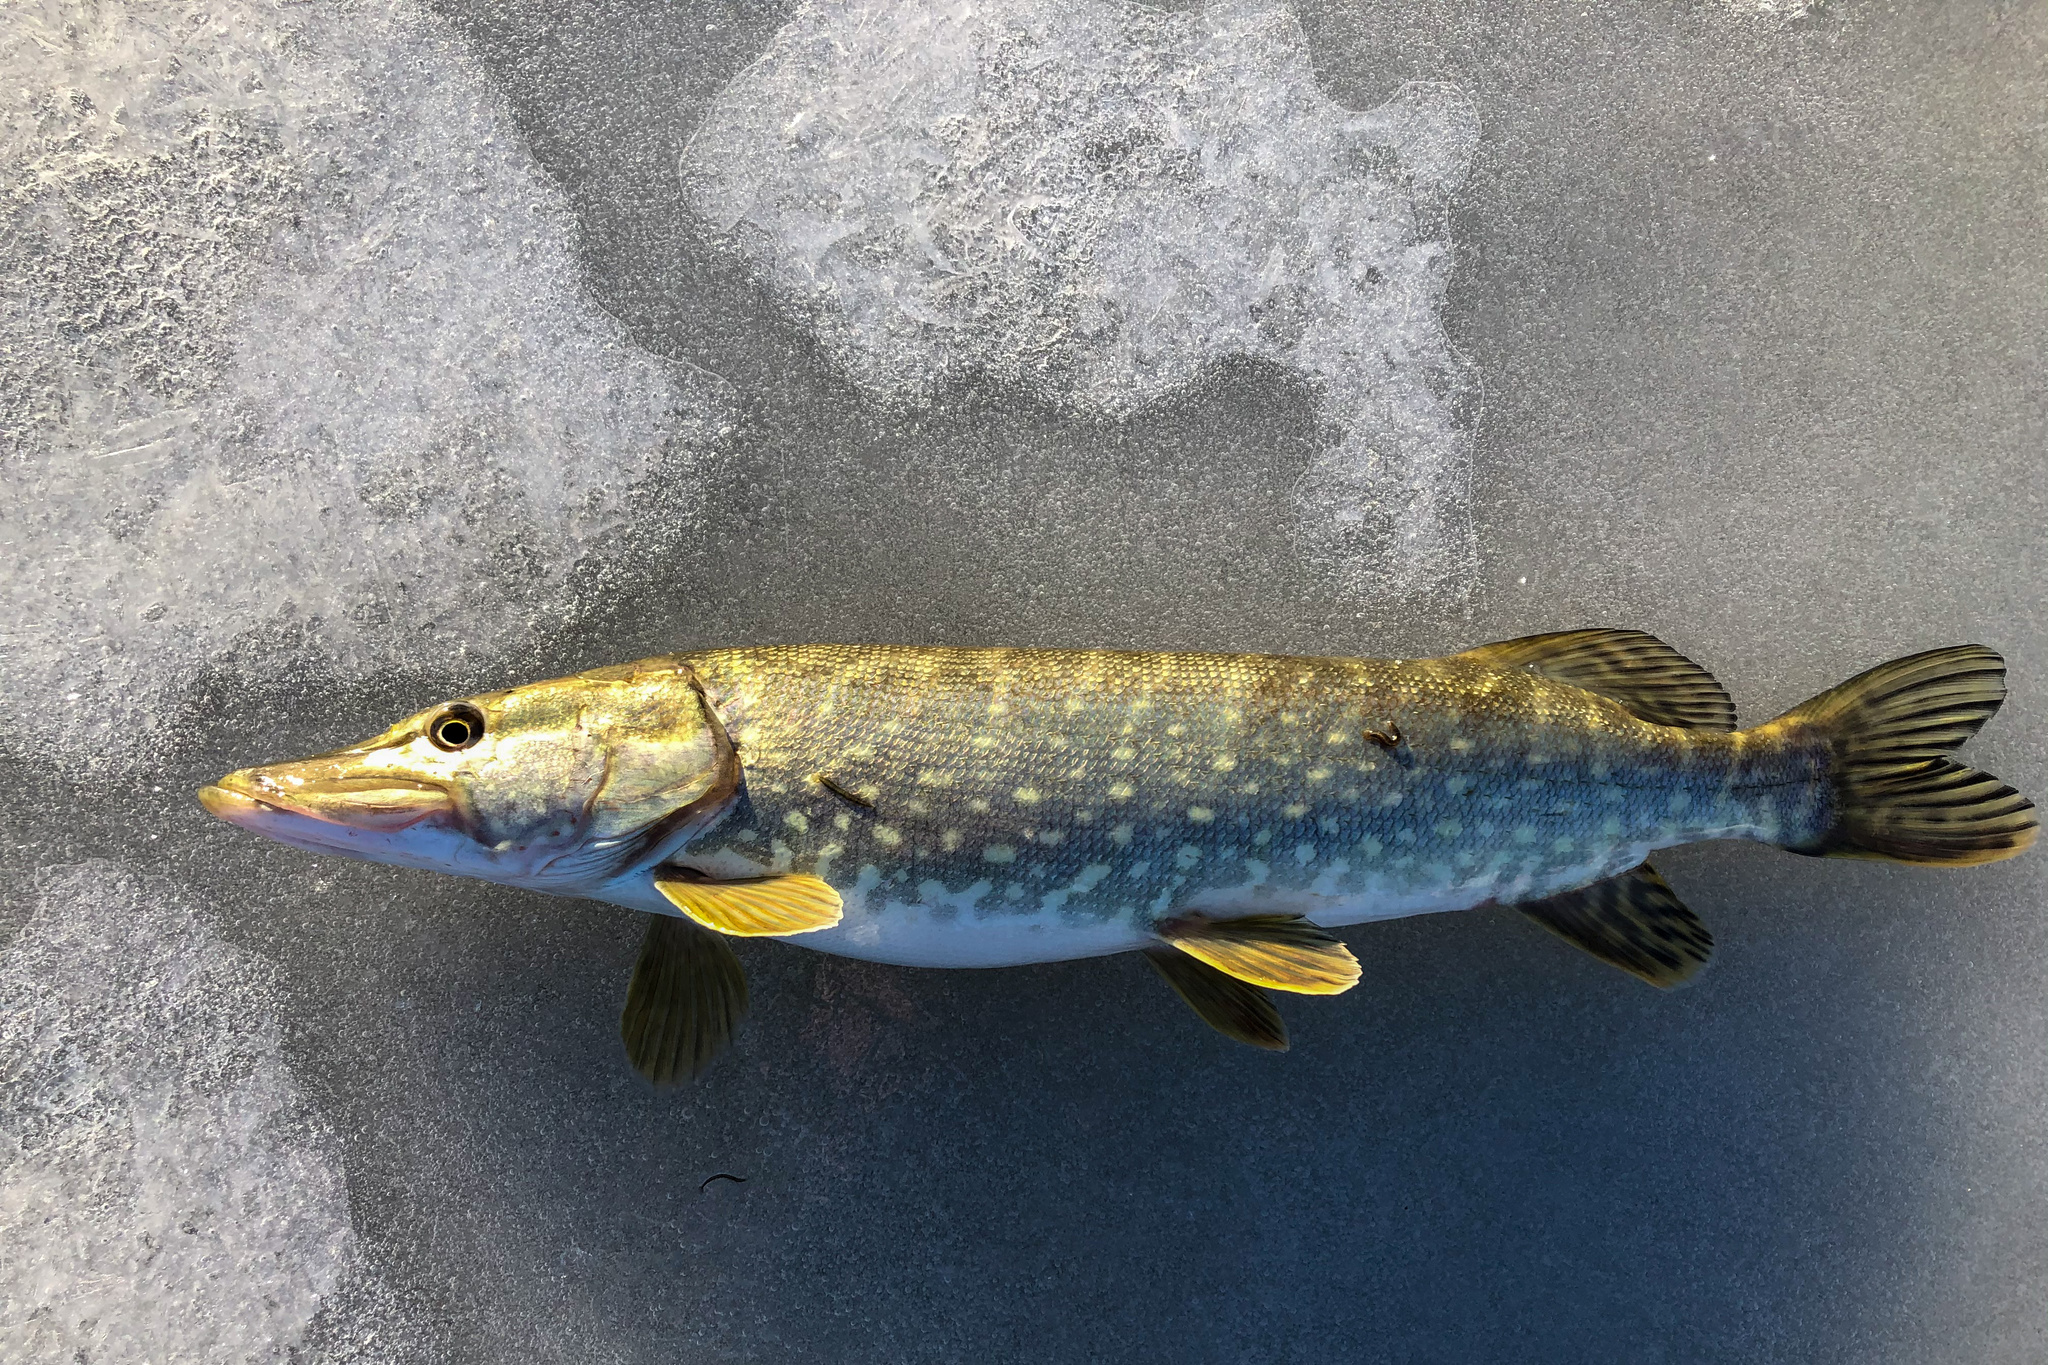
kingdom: Animalia
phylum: Chordata
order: Esociformes
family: Esocidae
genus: Esox
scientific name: Esox lucius
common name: Northern pike
